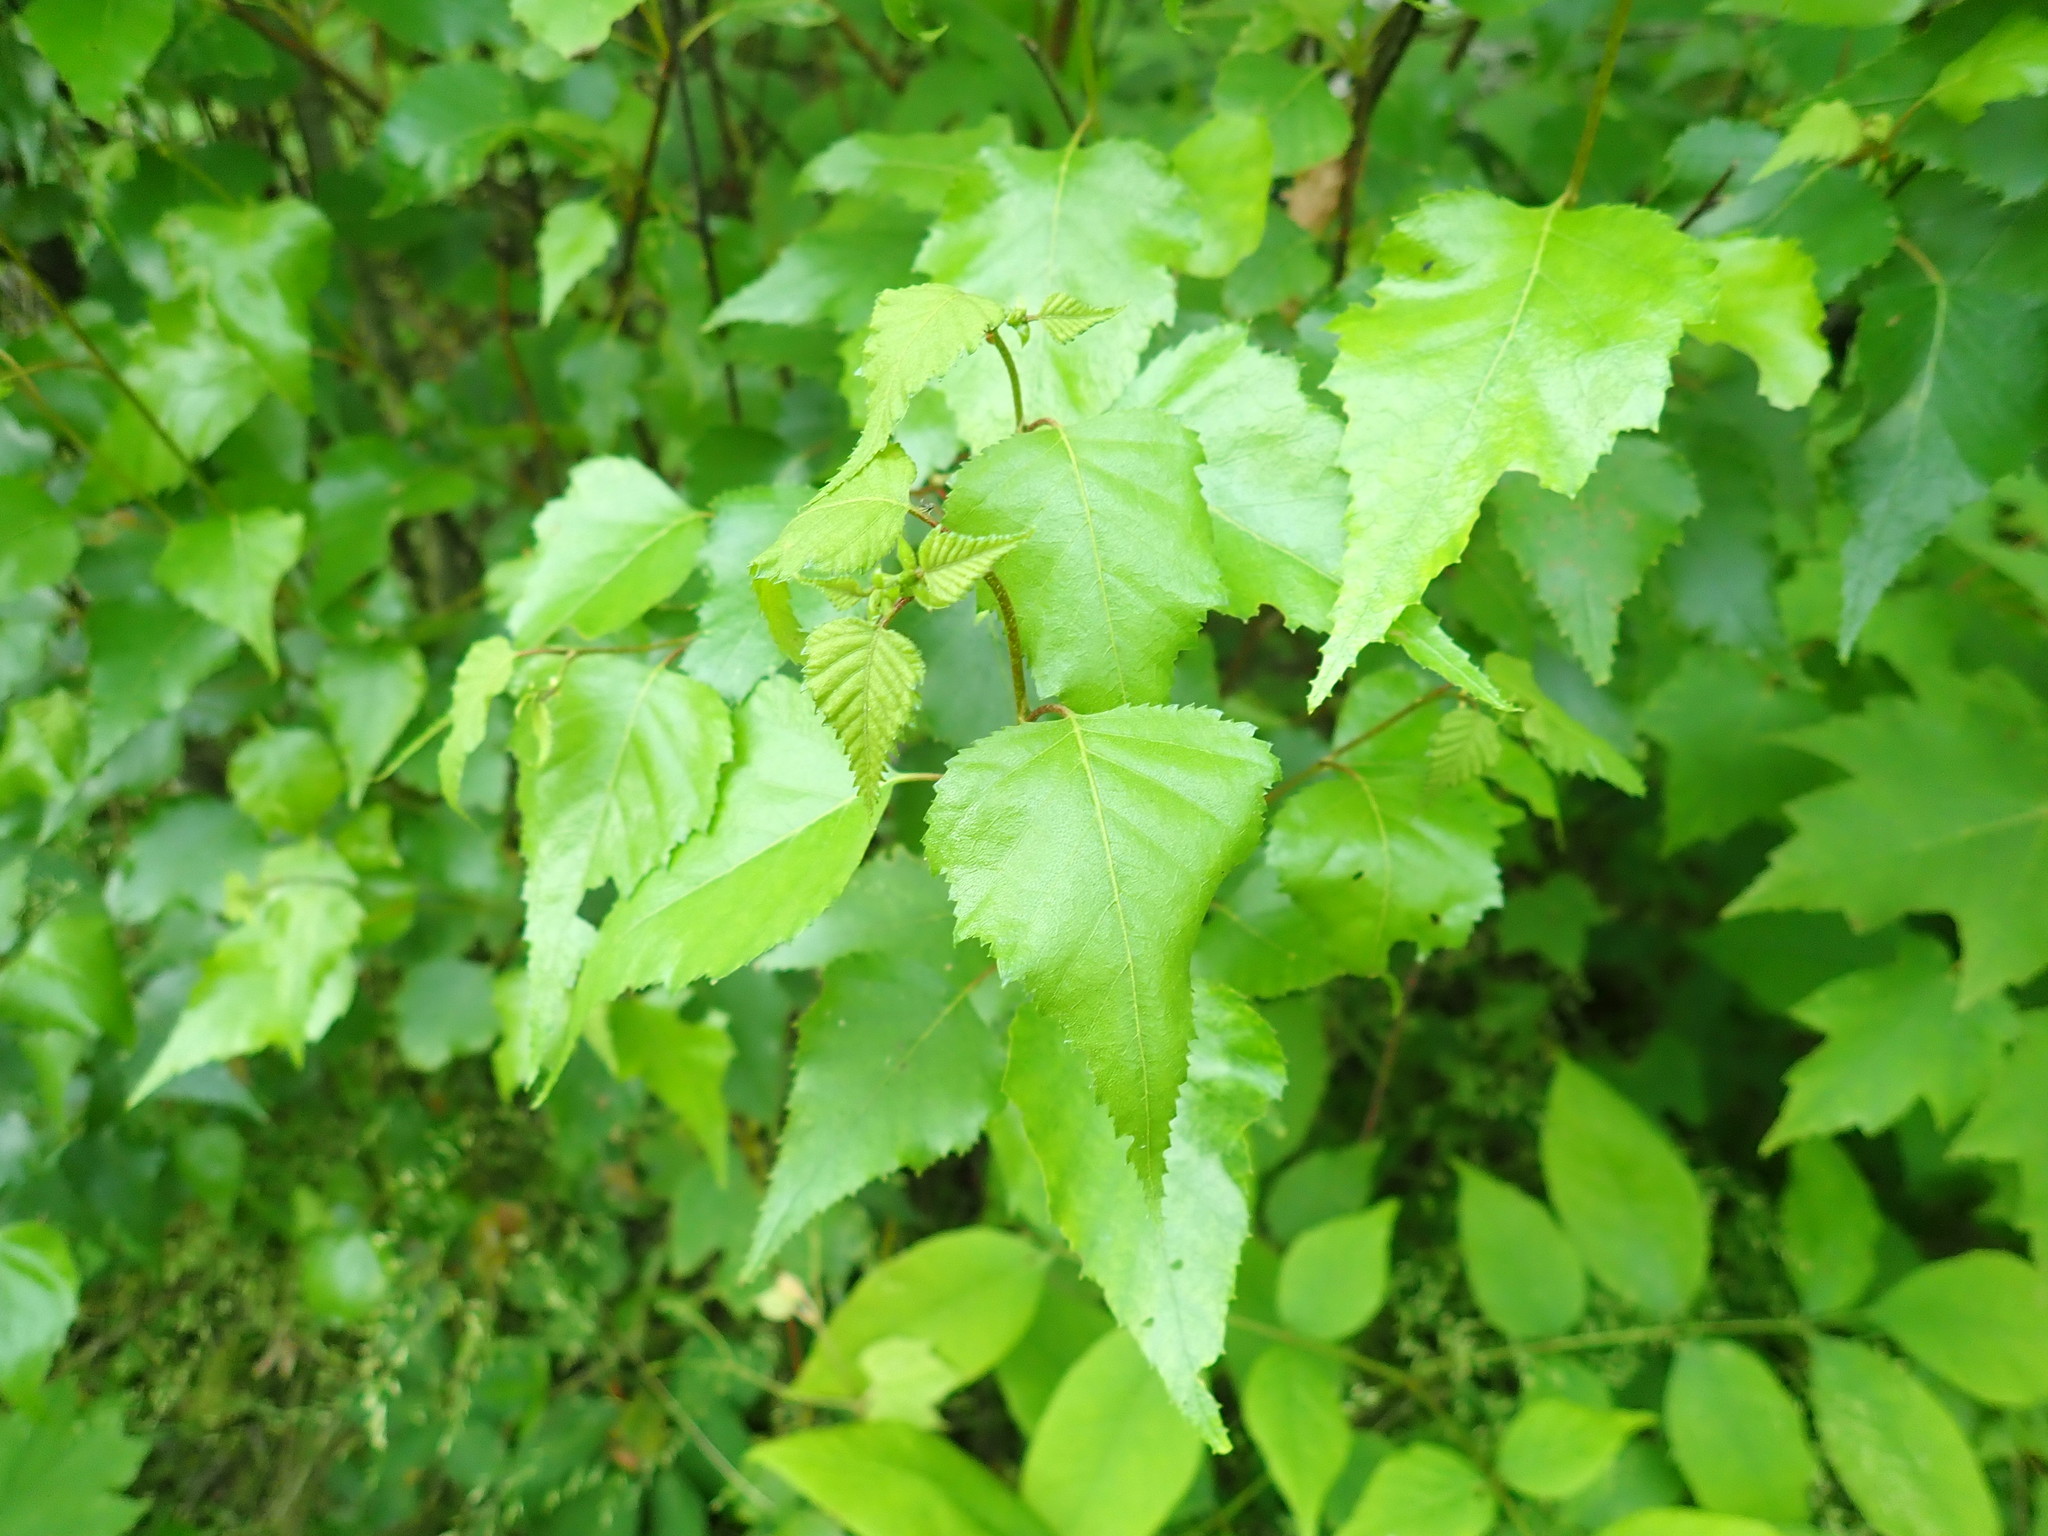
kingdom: Plantae
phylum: Tracheophyta
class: Magnoliopsida
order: Fagales
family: Betulaceae
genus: Betula
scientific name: Betula populifolia
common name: Fire birch
